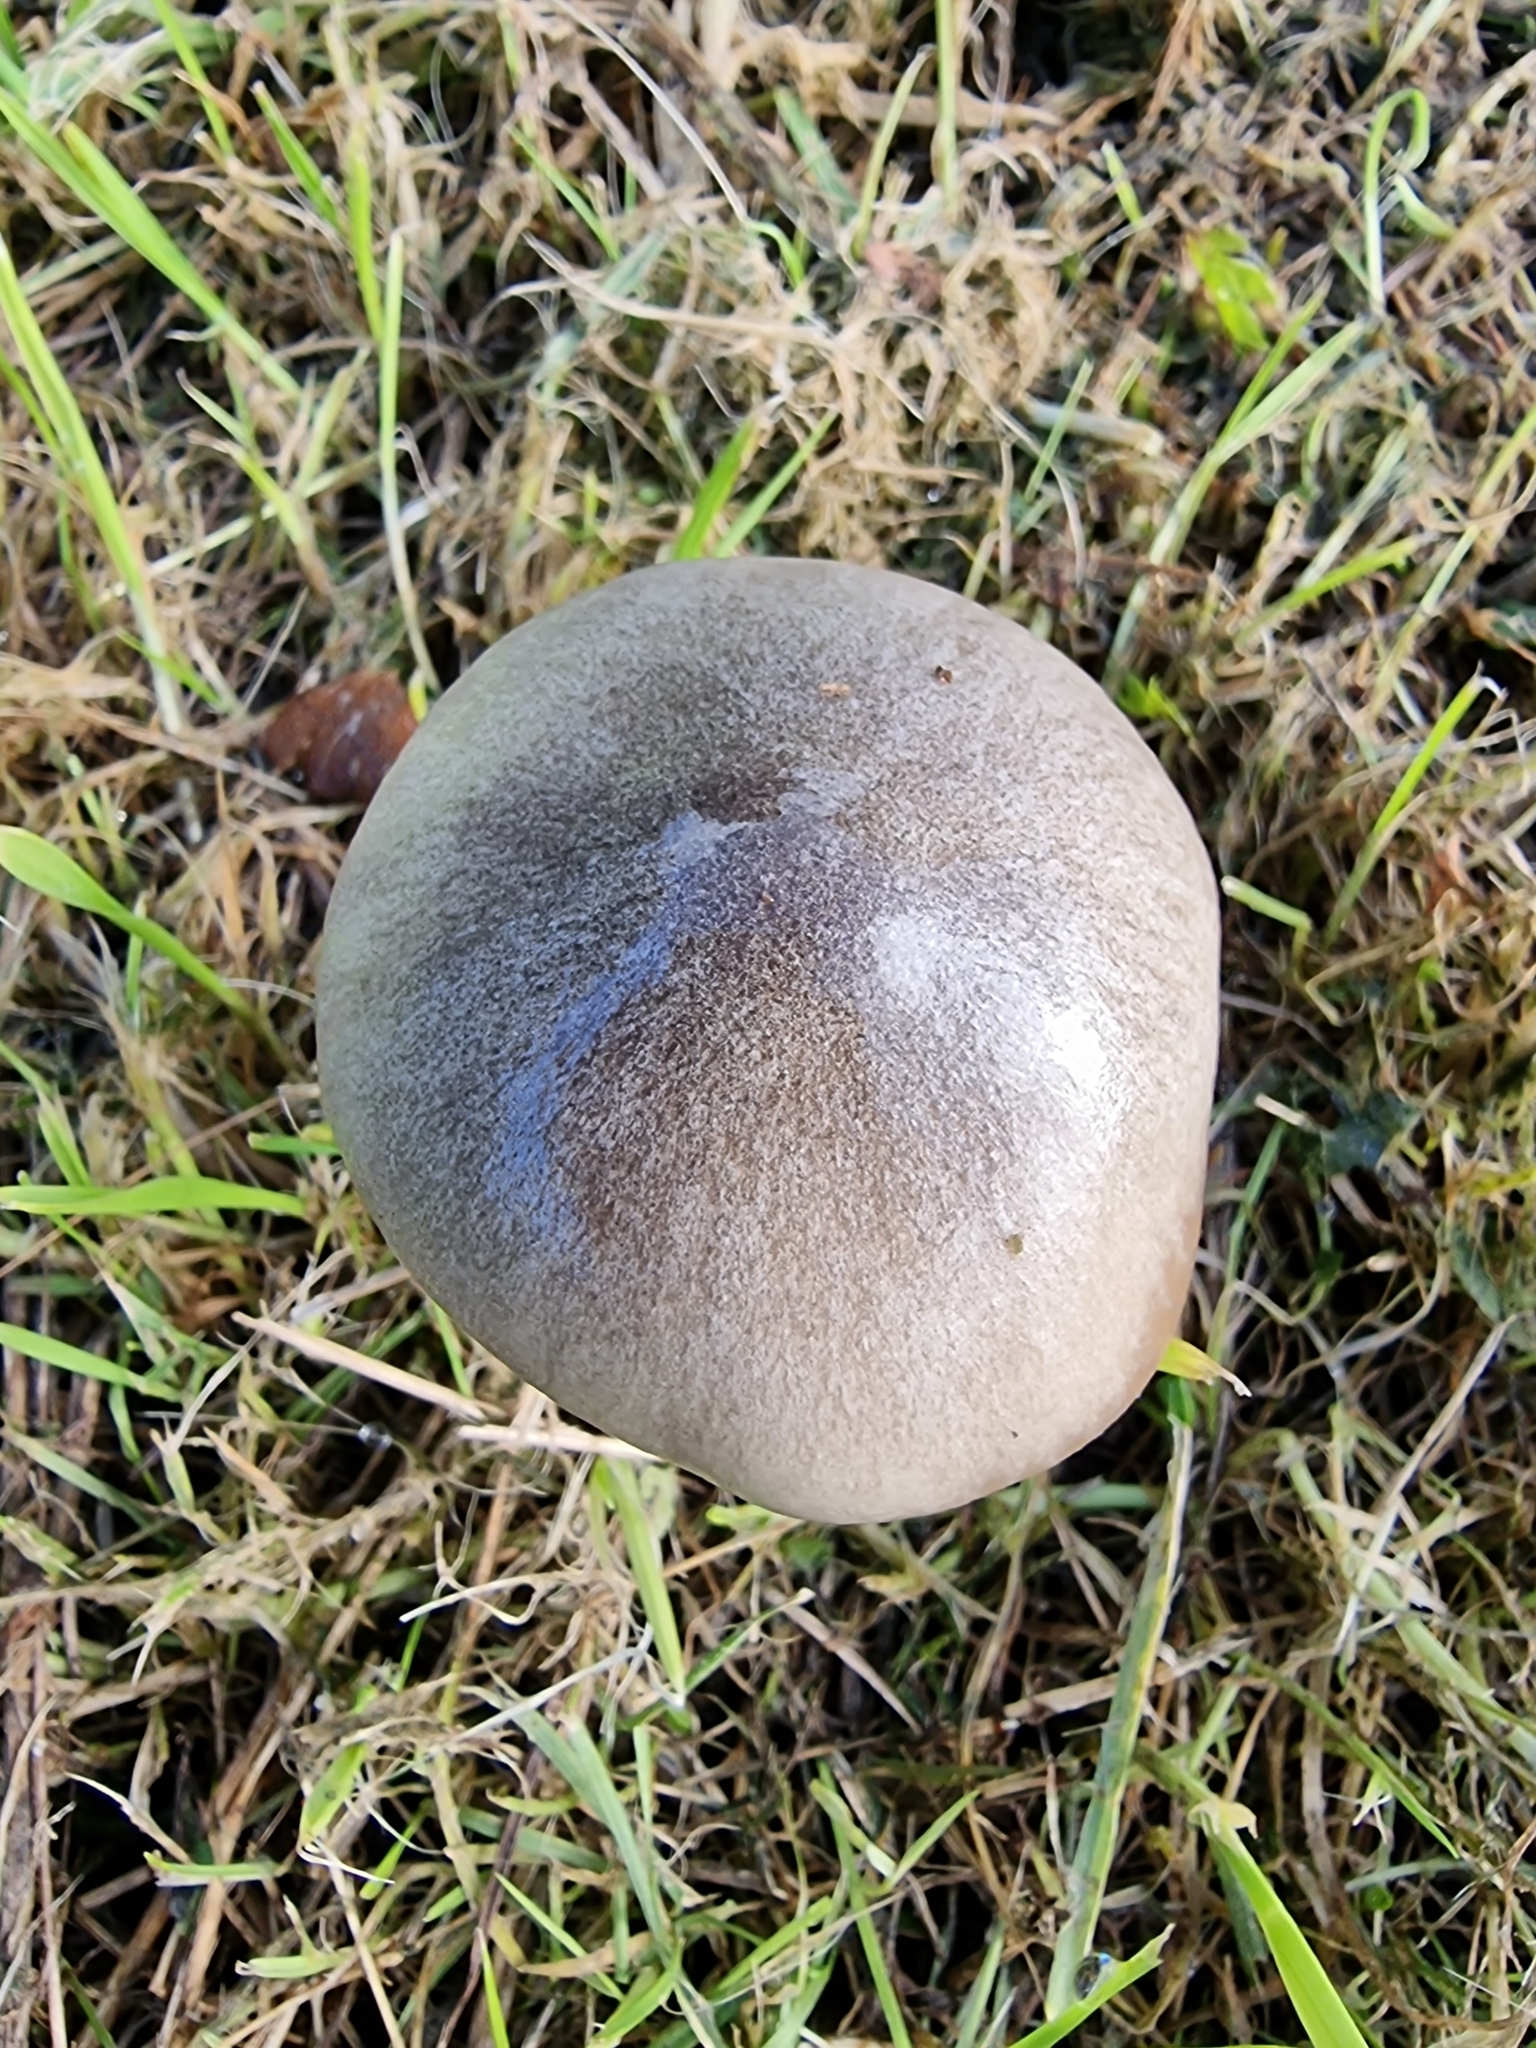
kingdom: Fungi
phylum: Basidiomycota
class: Agaricomycetes
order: Agaricales
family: Pluteaceae
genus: Volvopluteus
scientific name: Volvopluteus gloiocephalus
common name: Stubble rosegill
